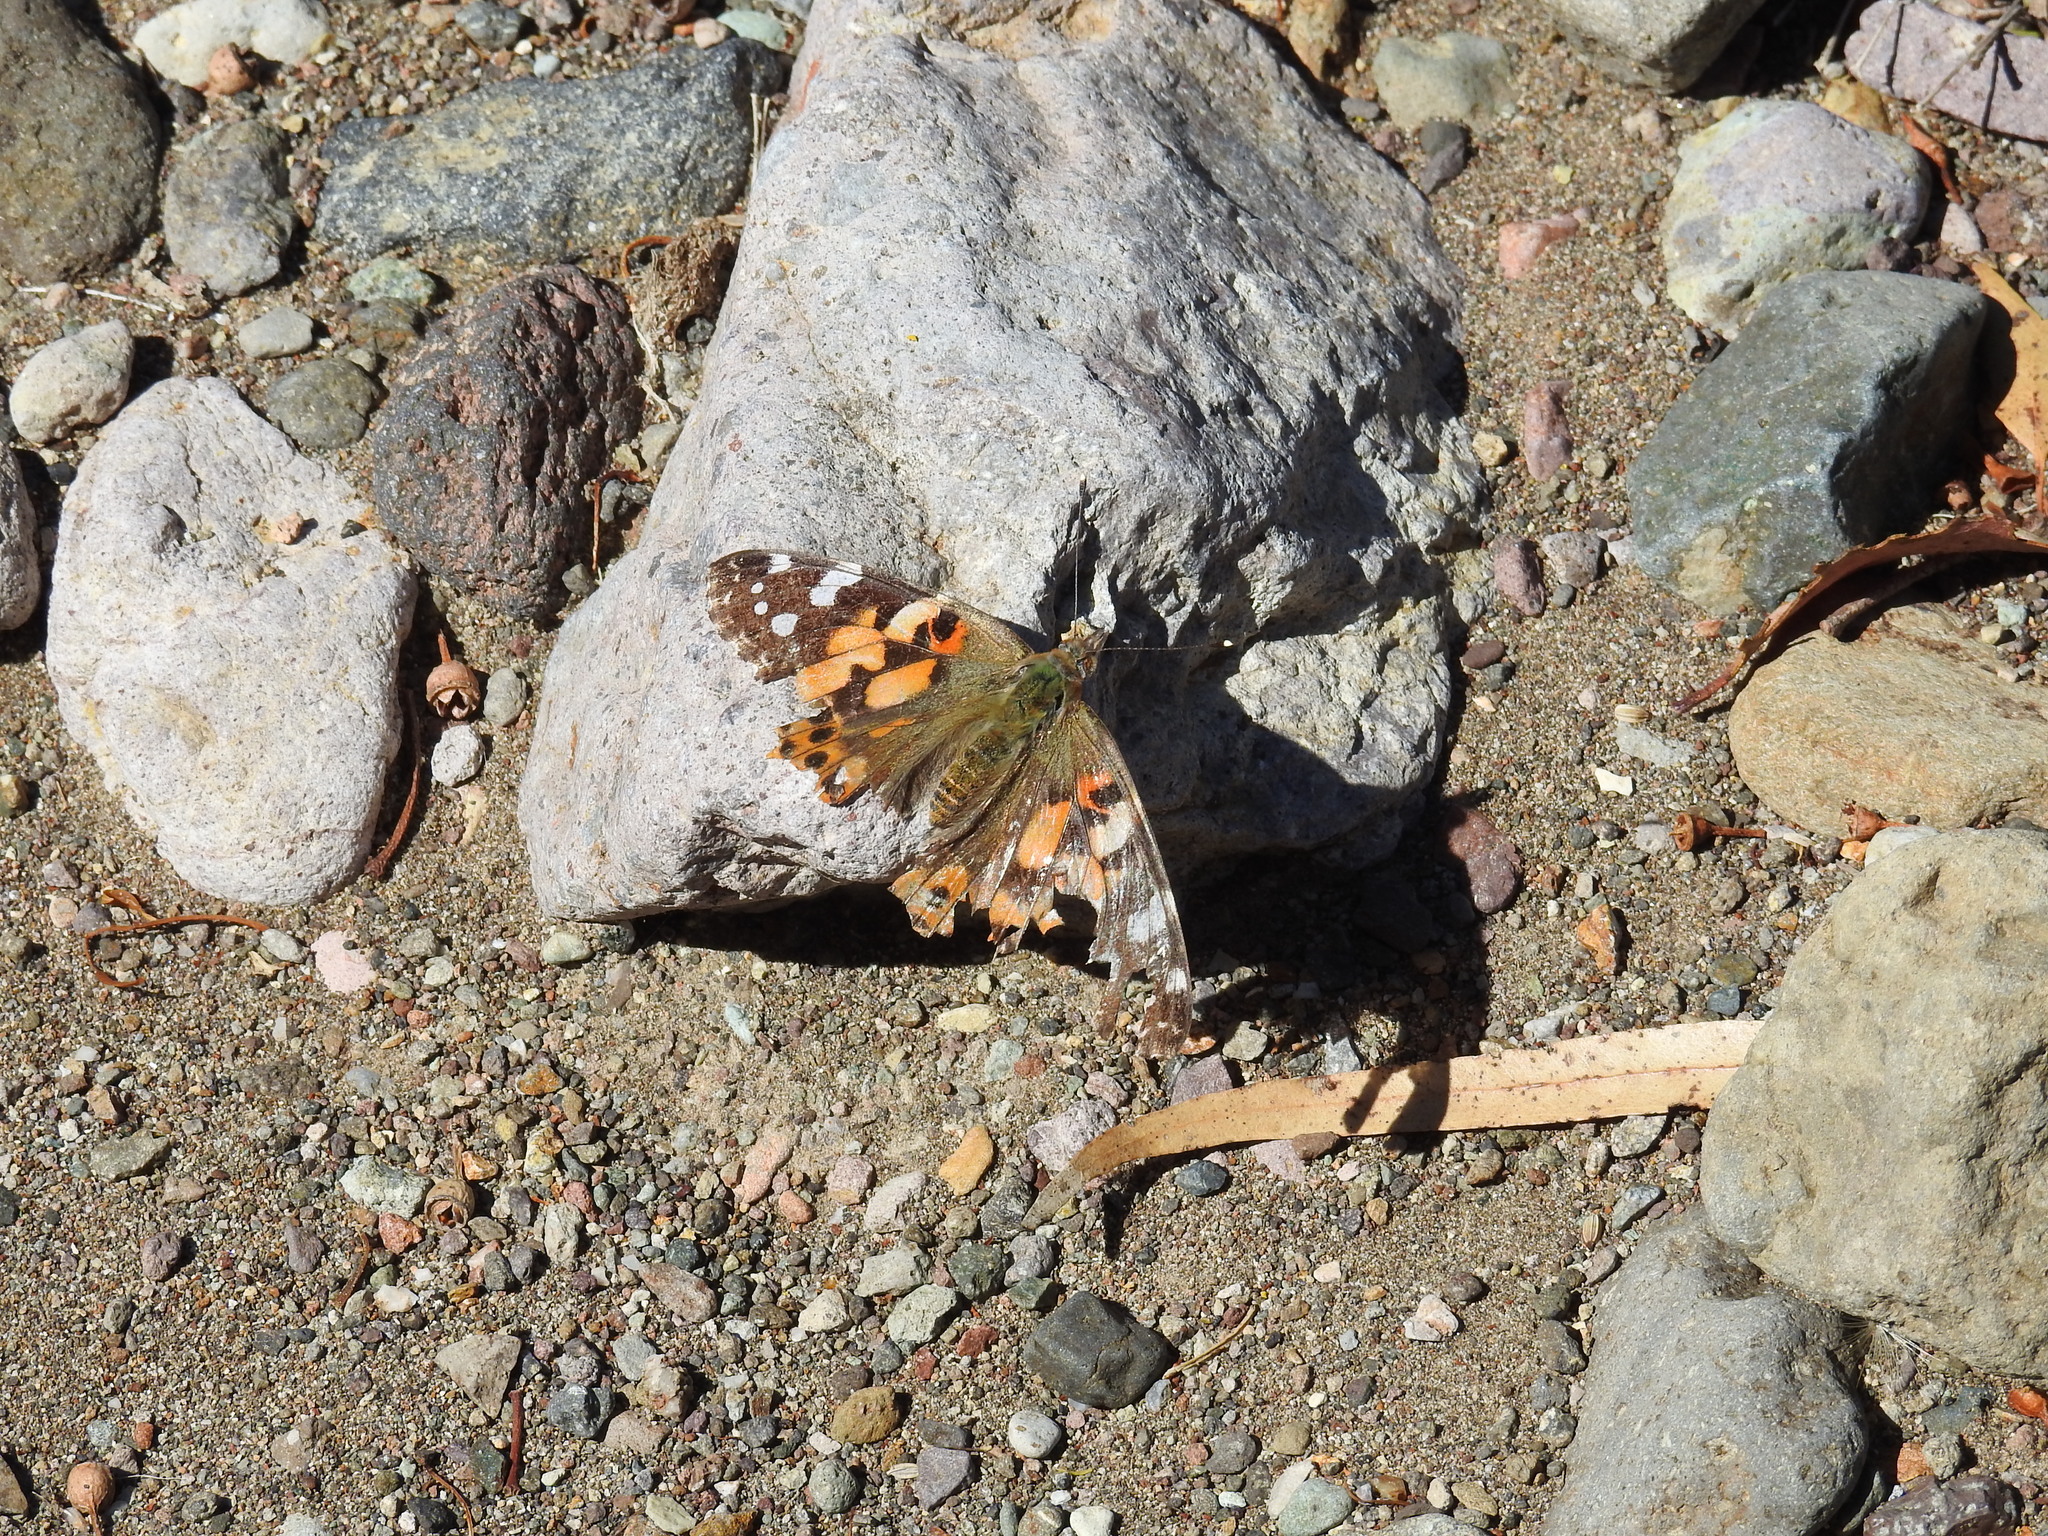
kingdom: Animalia
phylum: Arthropoda
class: Insecta
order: Lepidoptera
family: Nymphalidae
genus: Vanessa
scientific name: Vanessa cardui
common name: Painted lady
